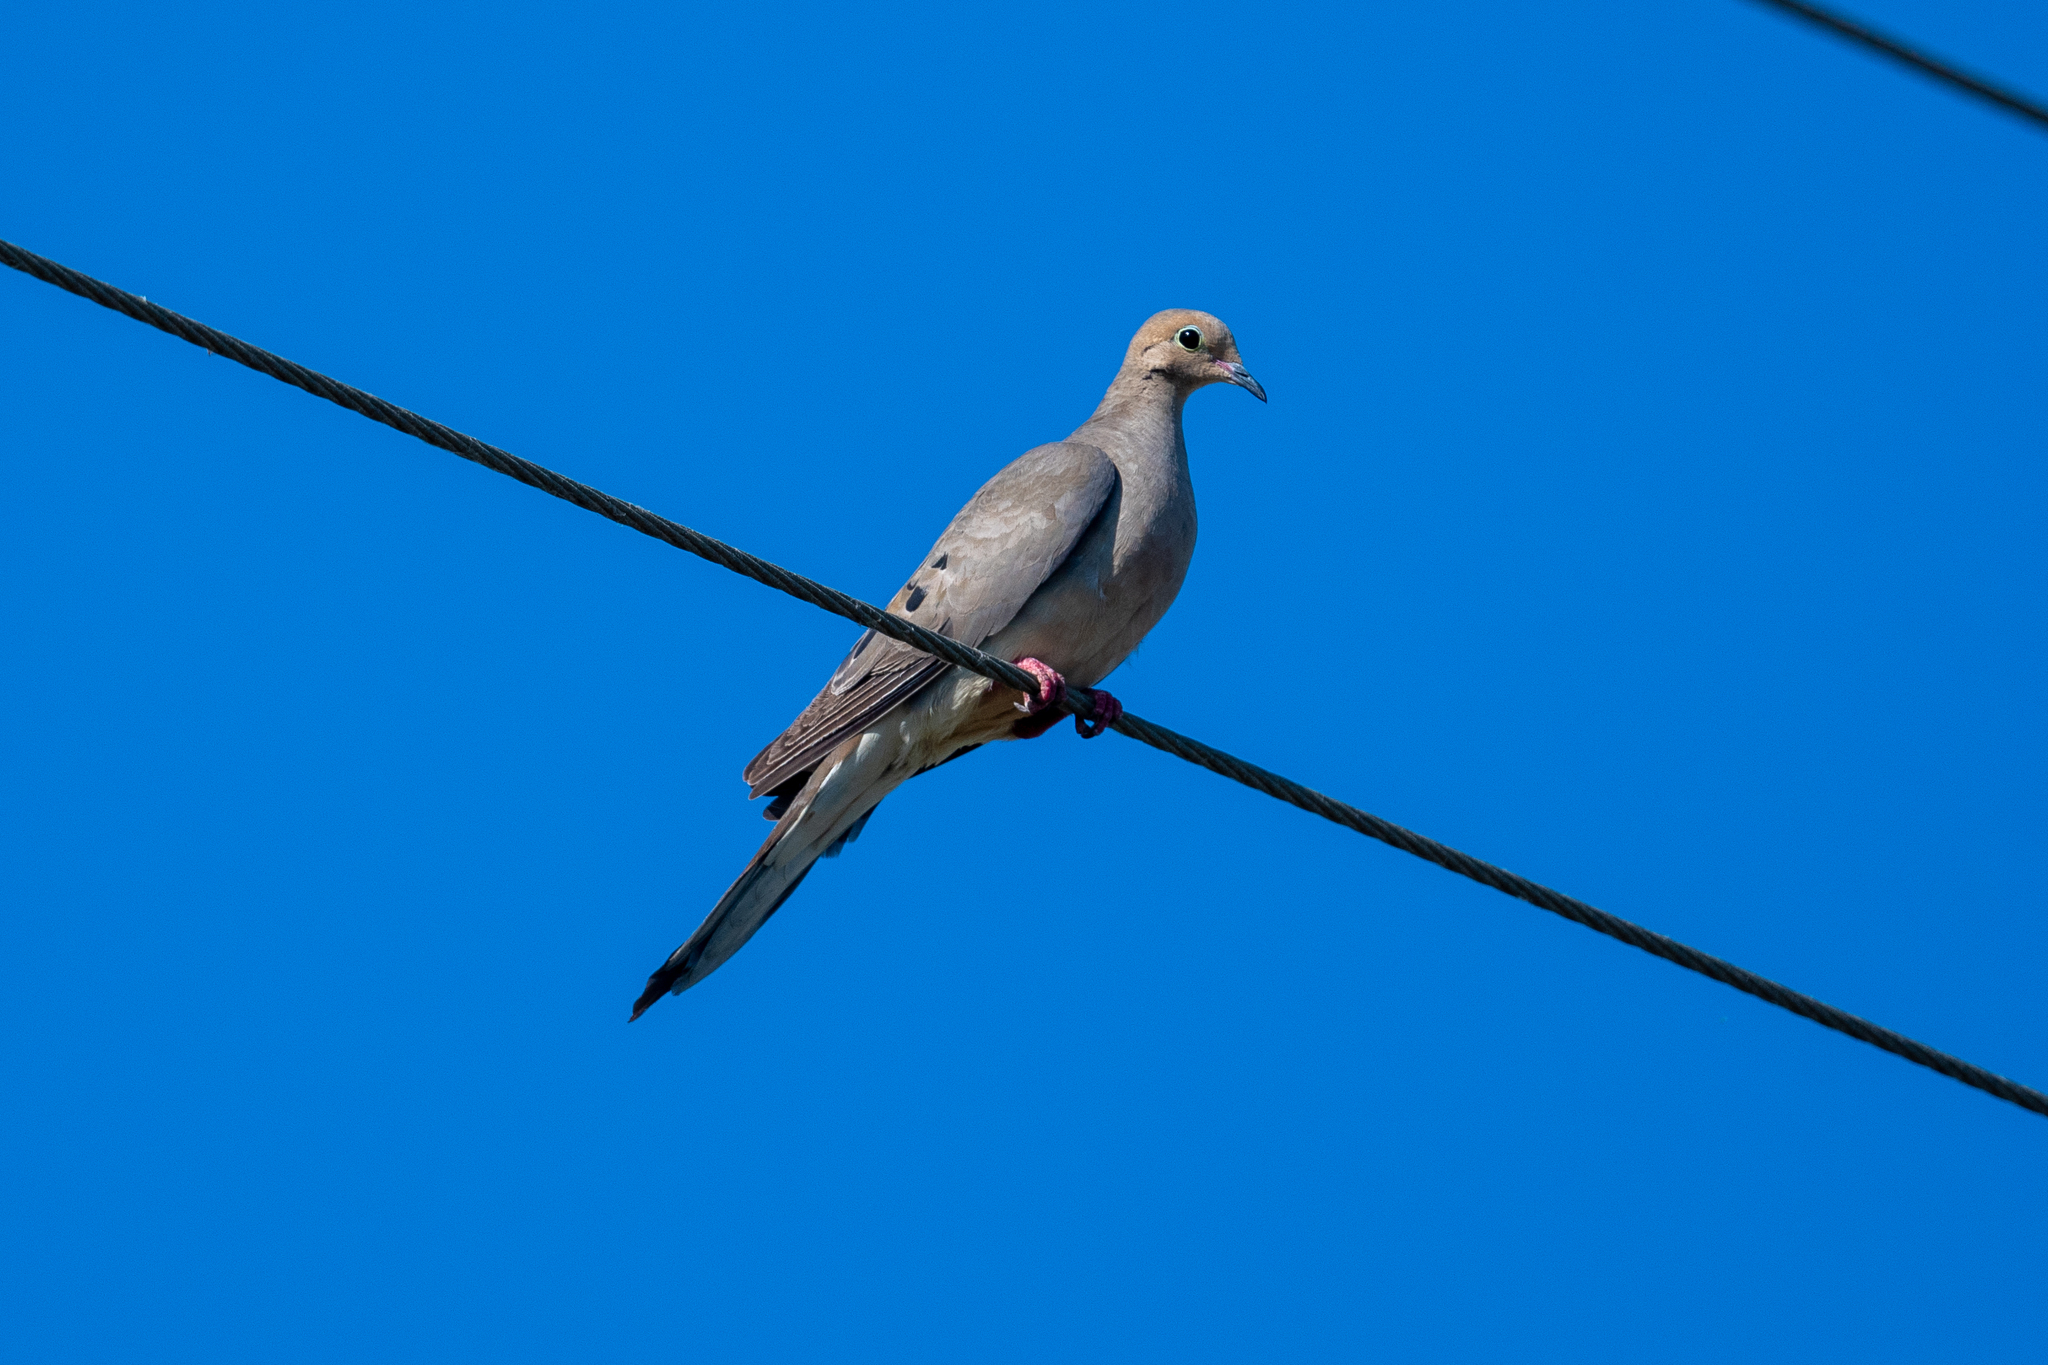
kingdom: Animalia
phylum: Chordata
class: Aves
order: Columbiformes
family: Columbidae
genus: Zenaida
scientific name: Zenaida macroura
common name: Mourning dove
